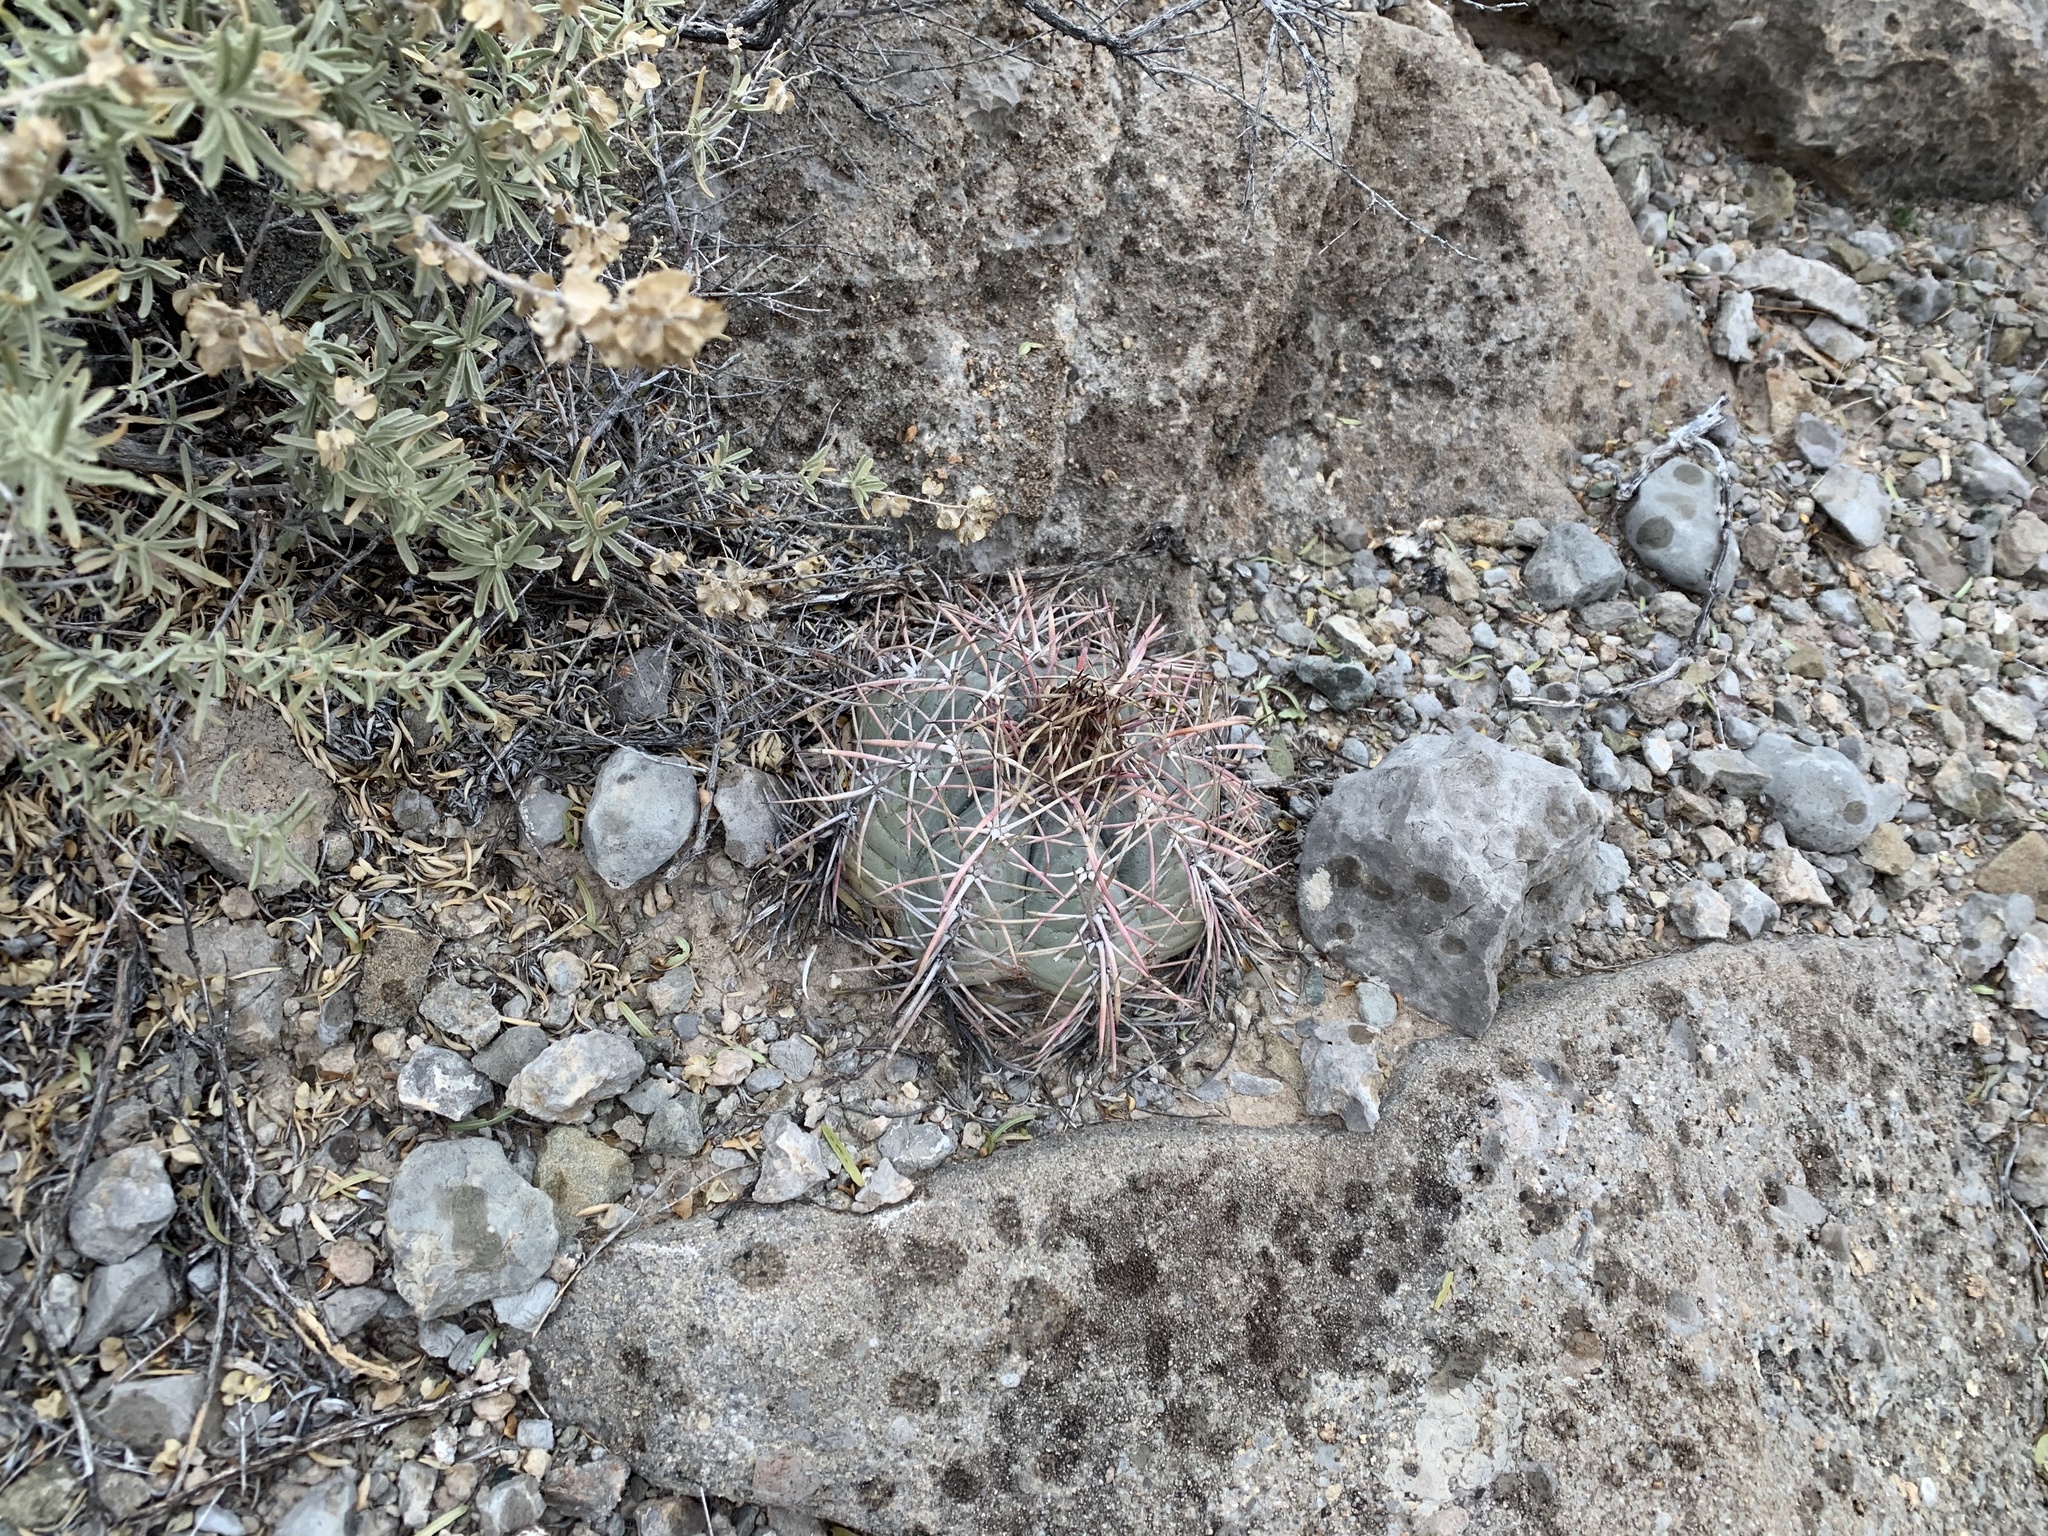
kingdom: Plantae
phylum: Tracheophyta
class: Magnoliopsida
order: Caryophyllales
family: Cactaceae
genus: Echinocactus
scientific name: Echinocactus horizonthalonius
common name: Devilshead
